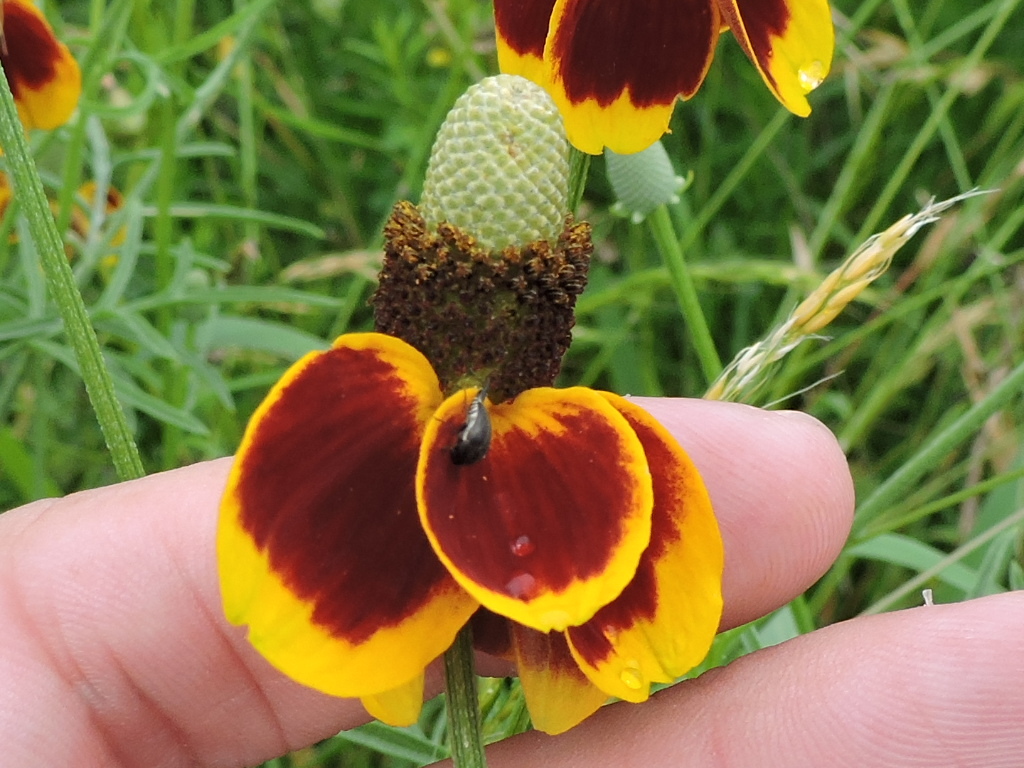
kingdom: Plantae
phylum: Tracheophyta
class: Magnoliopsida
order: Asterales
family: Asteraceae
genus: Ratibida
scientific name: Ratibida columnifera
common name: Prairie coneflower
